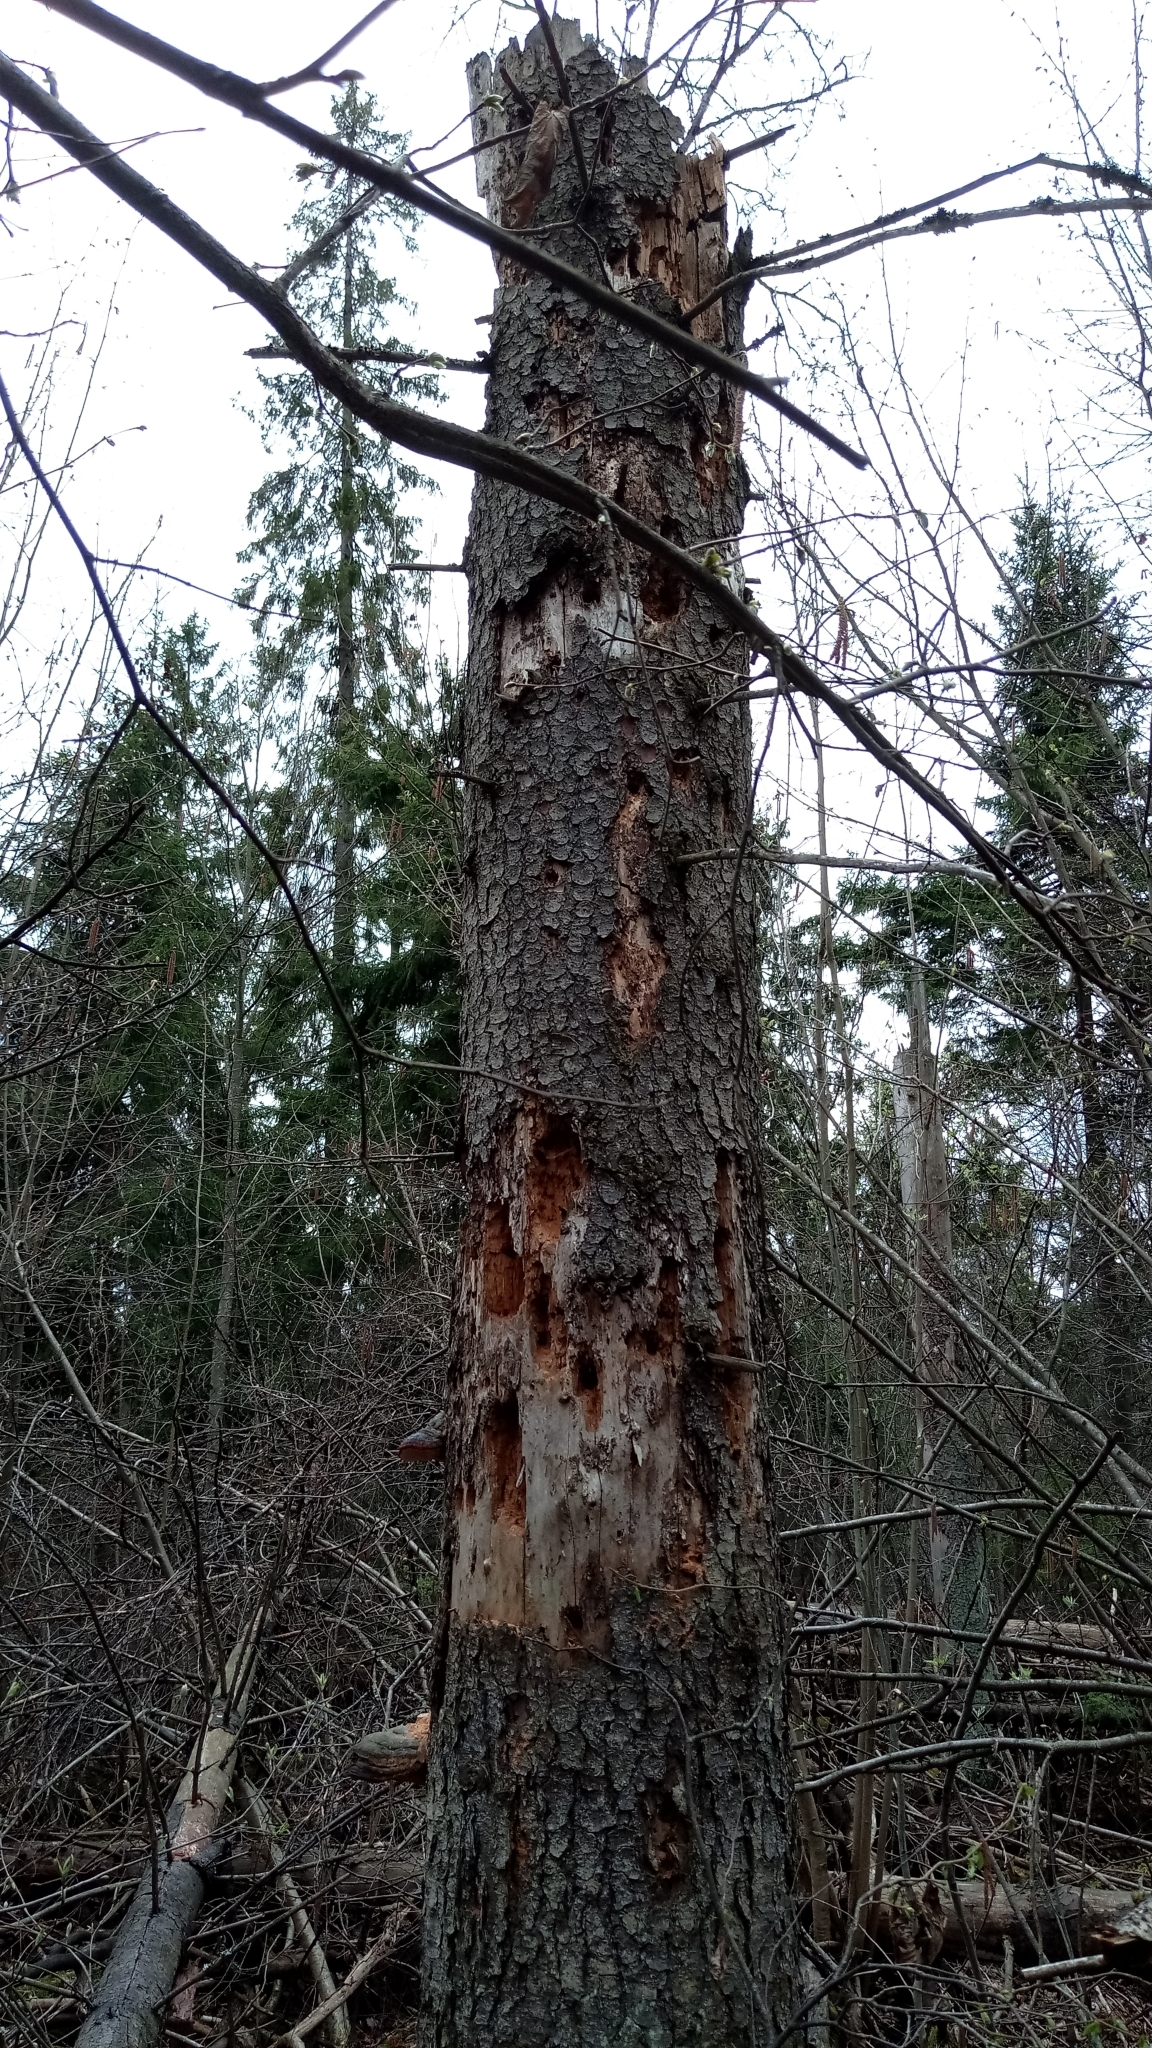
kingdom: Plantae
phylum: Tracheophyta
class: Pinopsida
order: Pinales
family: Pinaceae
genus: Picea
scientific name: Picea abies
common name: Norway spruce
